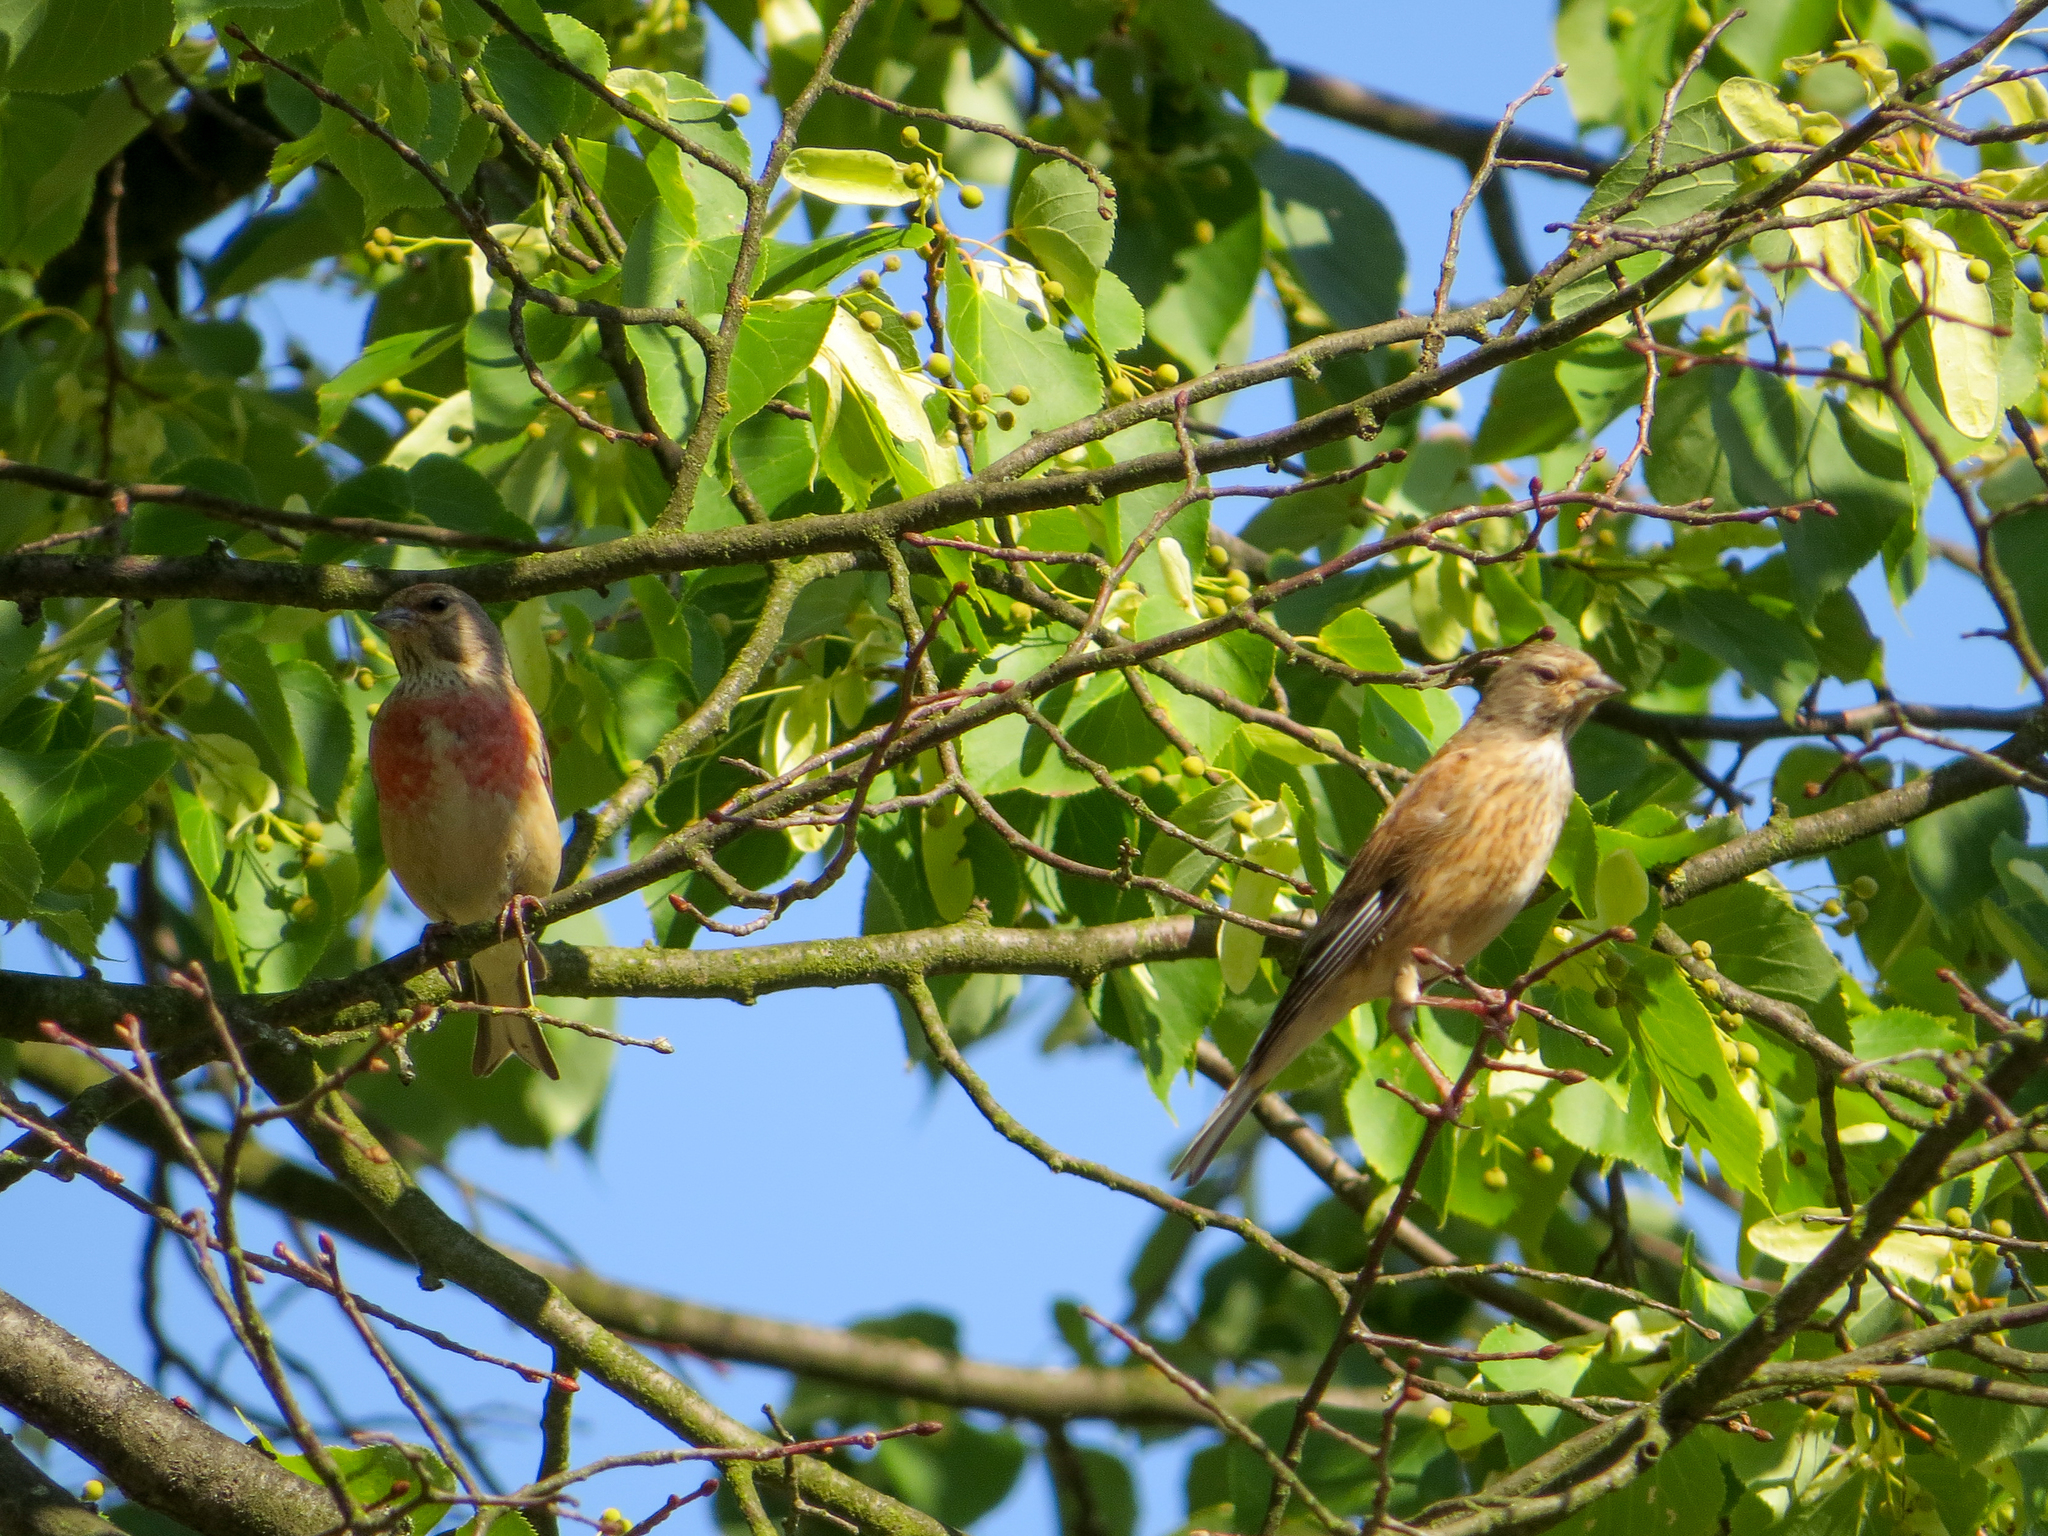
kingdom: Animalia
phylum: Chordata
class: Aves
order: Passeriformes
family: Fringillidae
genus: Linaria
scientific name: Linaria cannabina
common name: Common linnet
